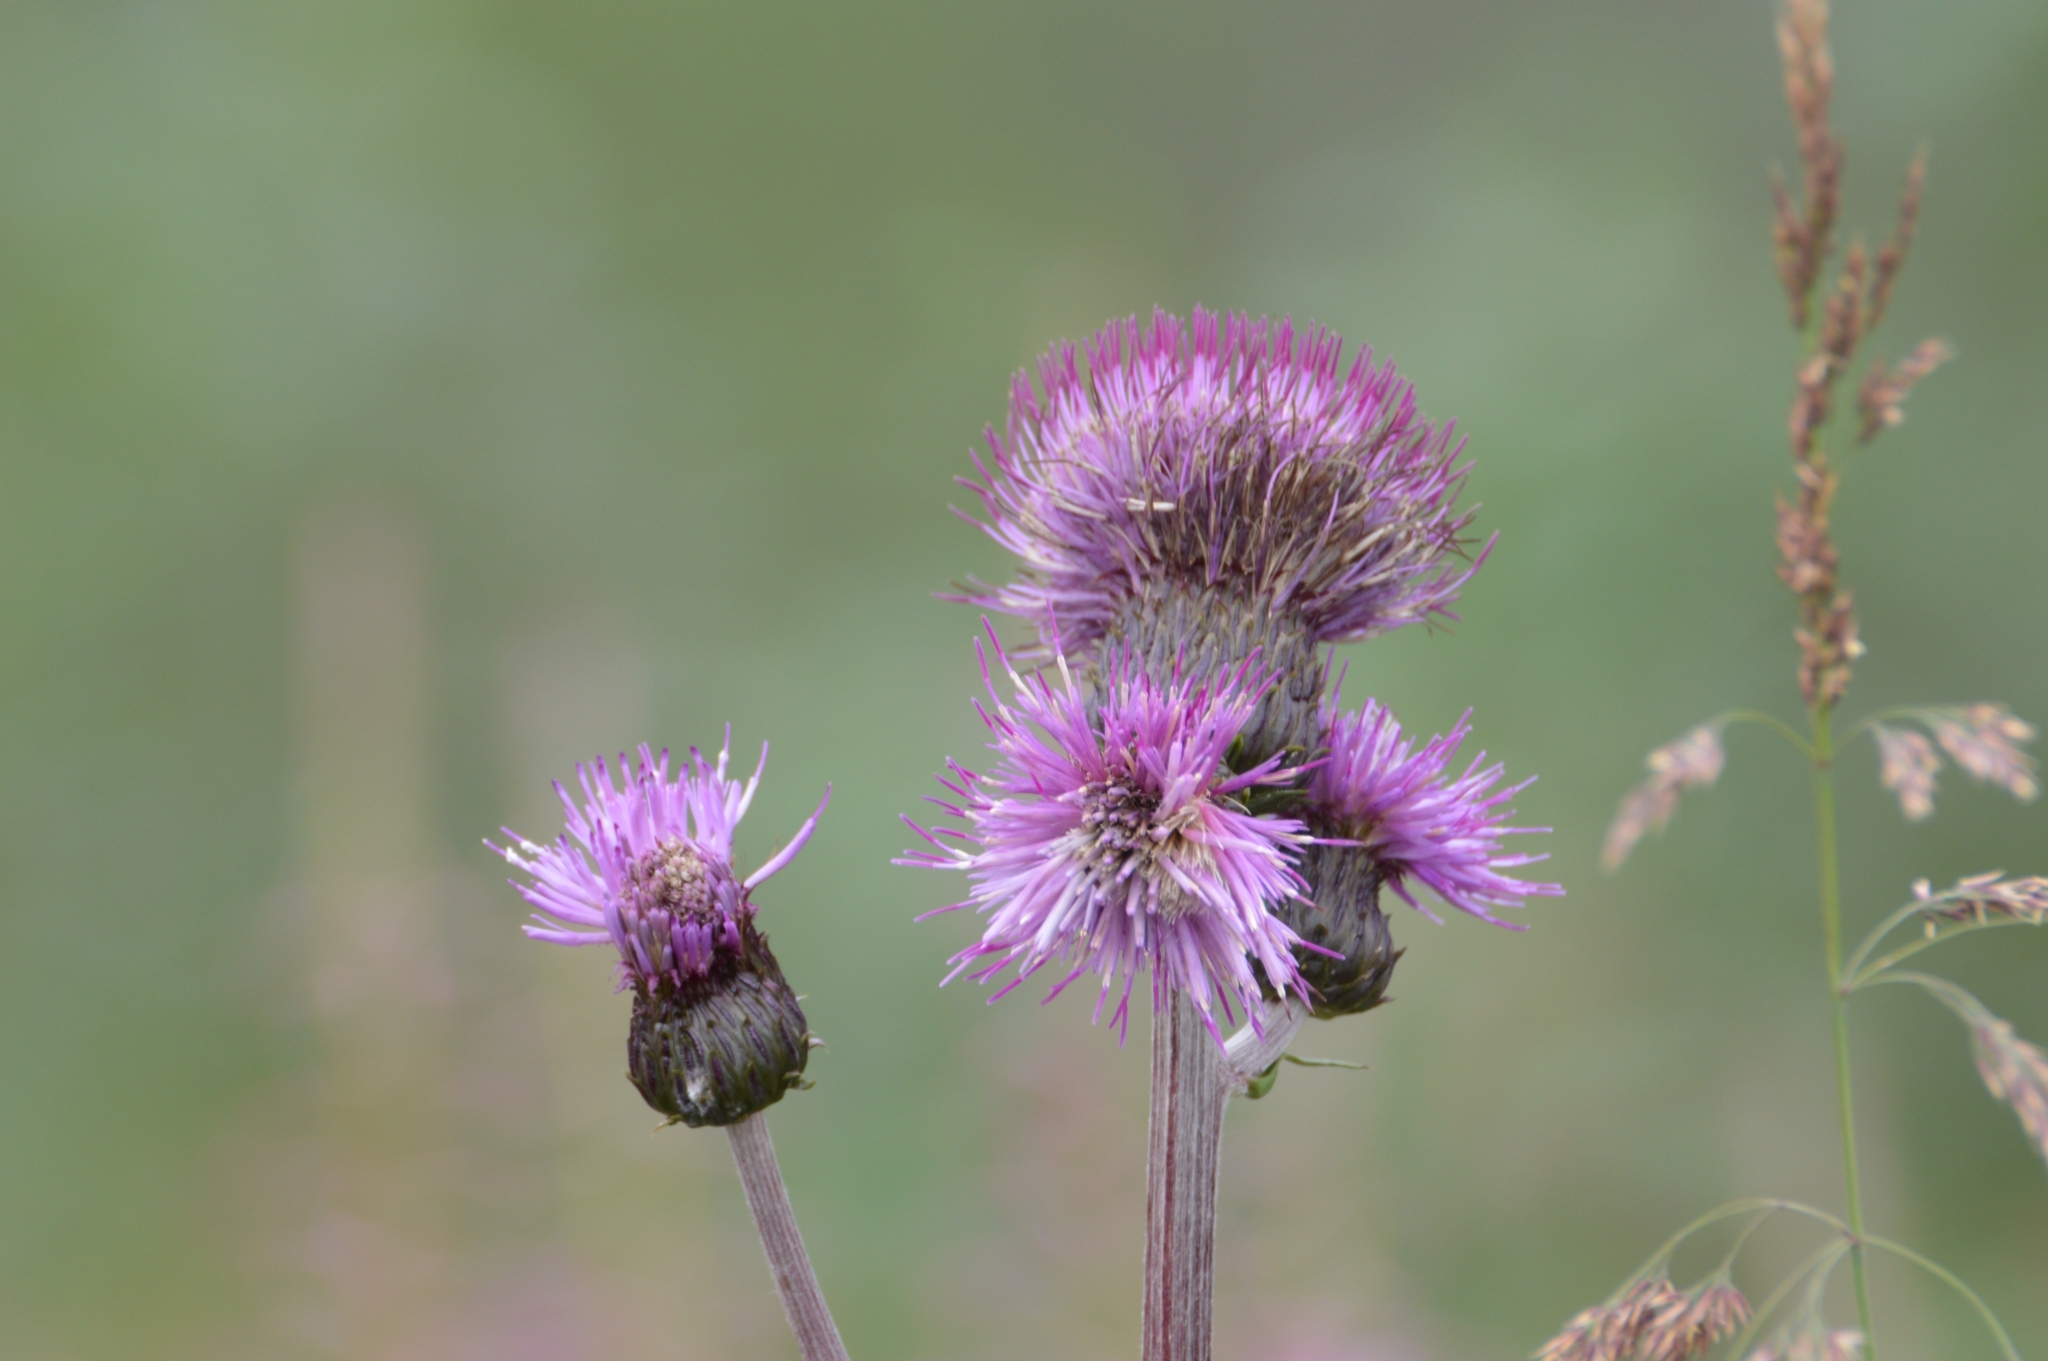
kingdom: Plantae
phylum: Tracheophyta
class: Magnoliopsida
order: Asterales
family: Asteraceae
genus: Cirsium
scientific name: Cirsium heterophyllum
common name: Melancholy thistle
